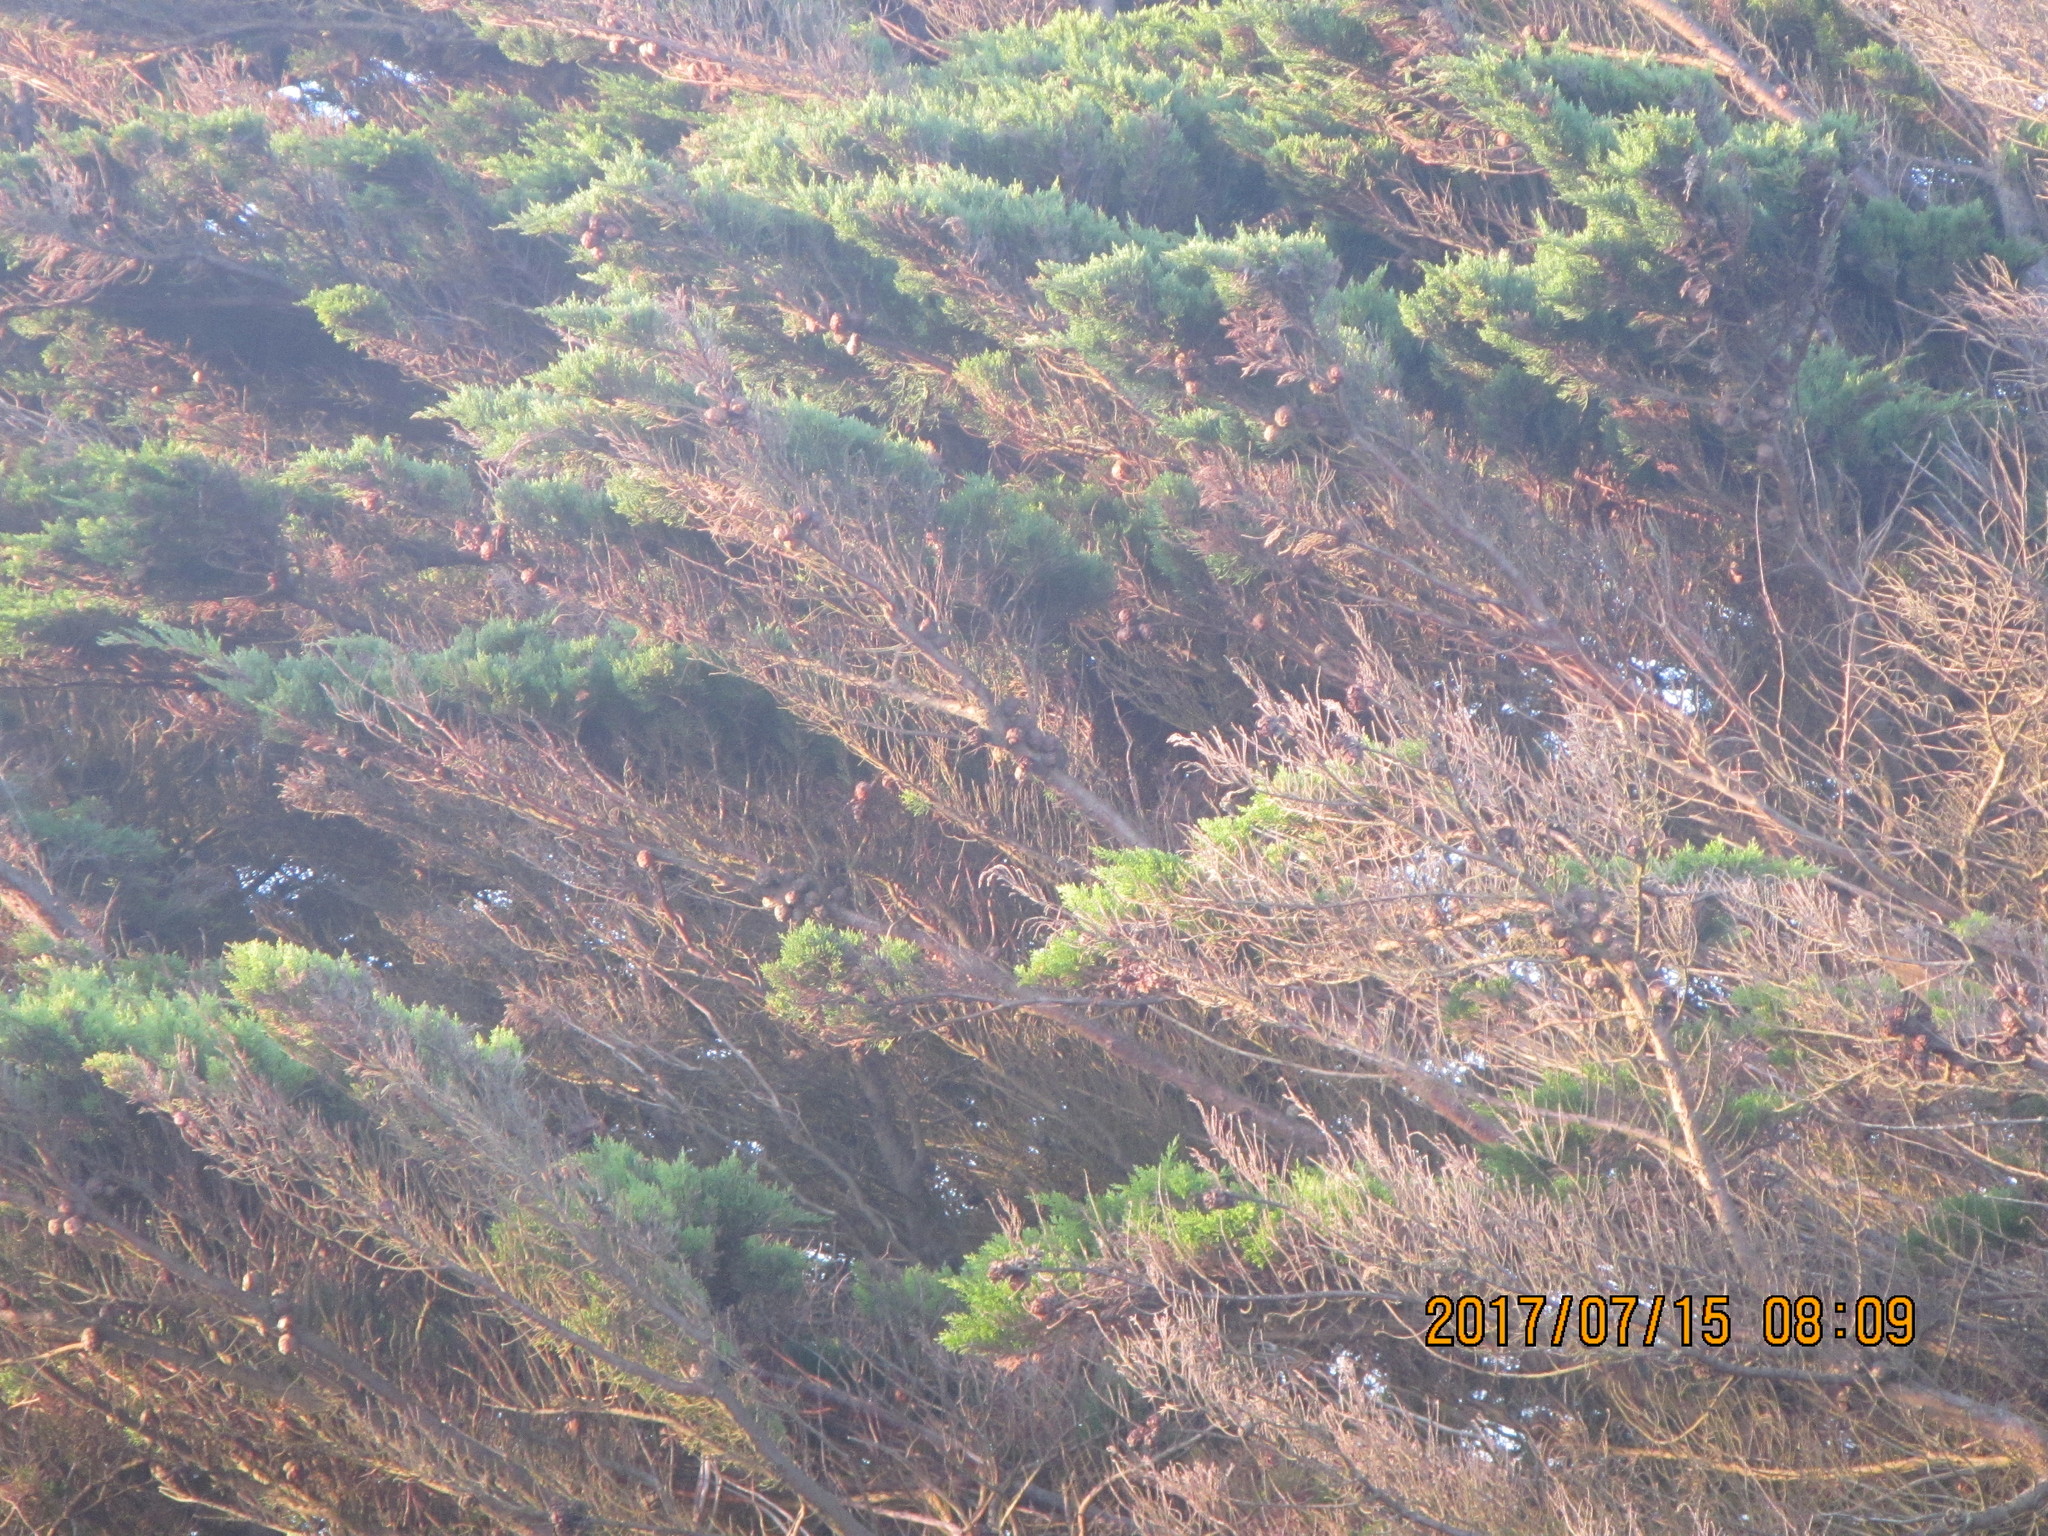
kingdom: Plantae
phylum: Tracheophyta
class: Pinopsida
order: Pinales
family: Cupressaceae
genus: Cupressus
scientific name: Cupressus macrocarpa
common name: Monterey cypress
